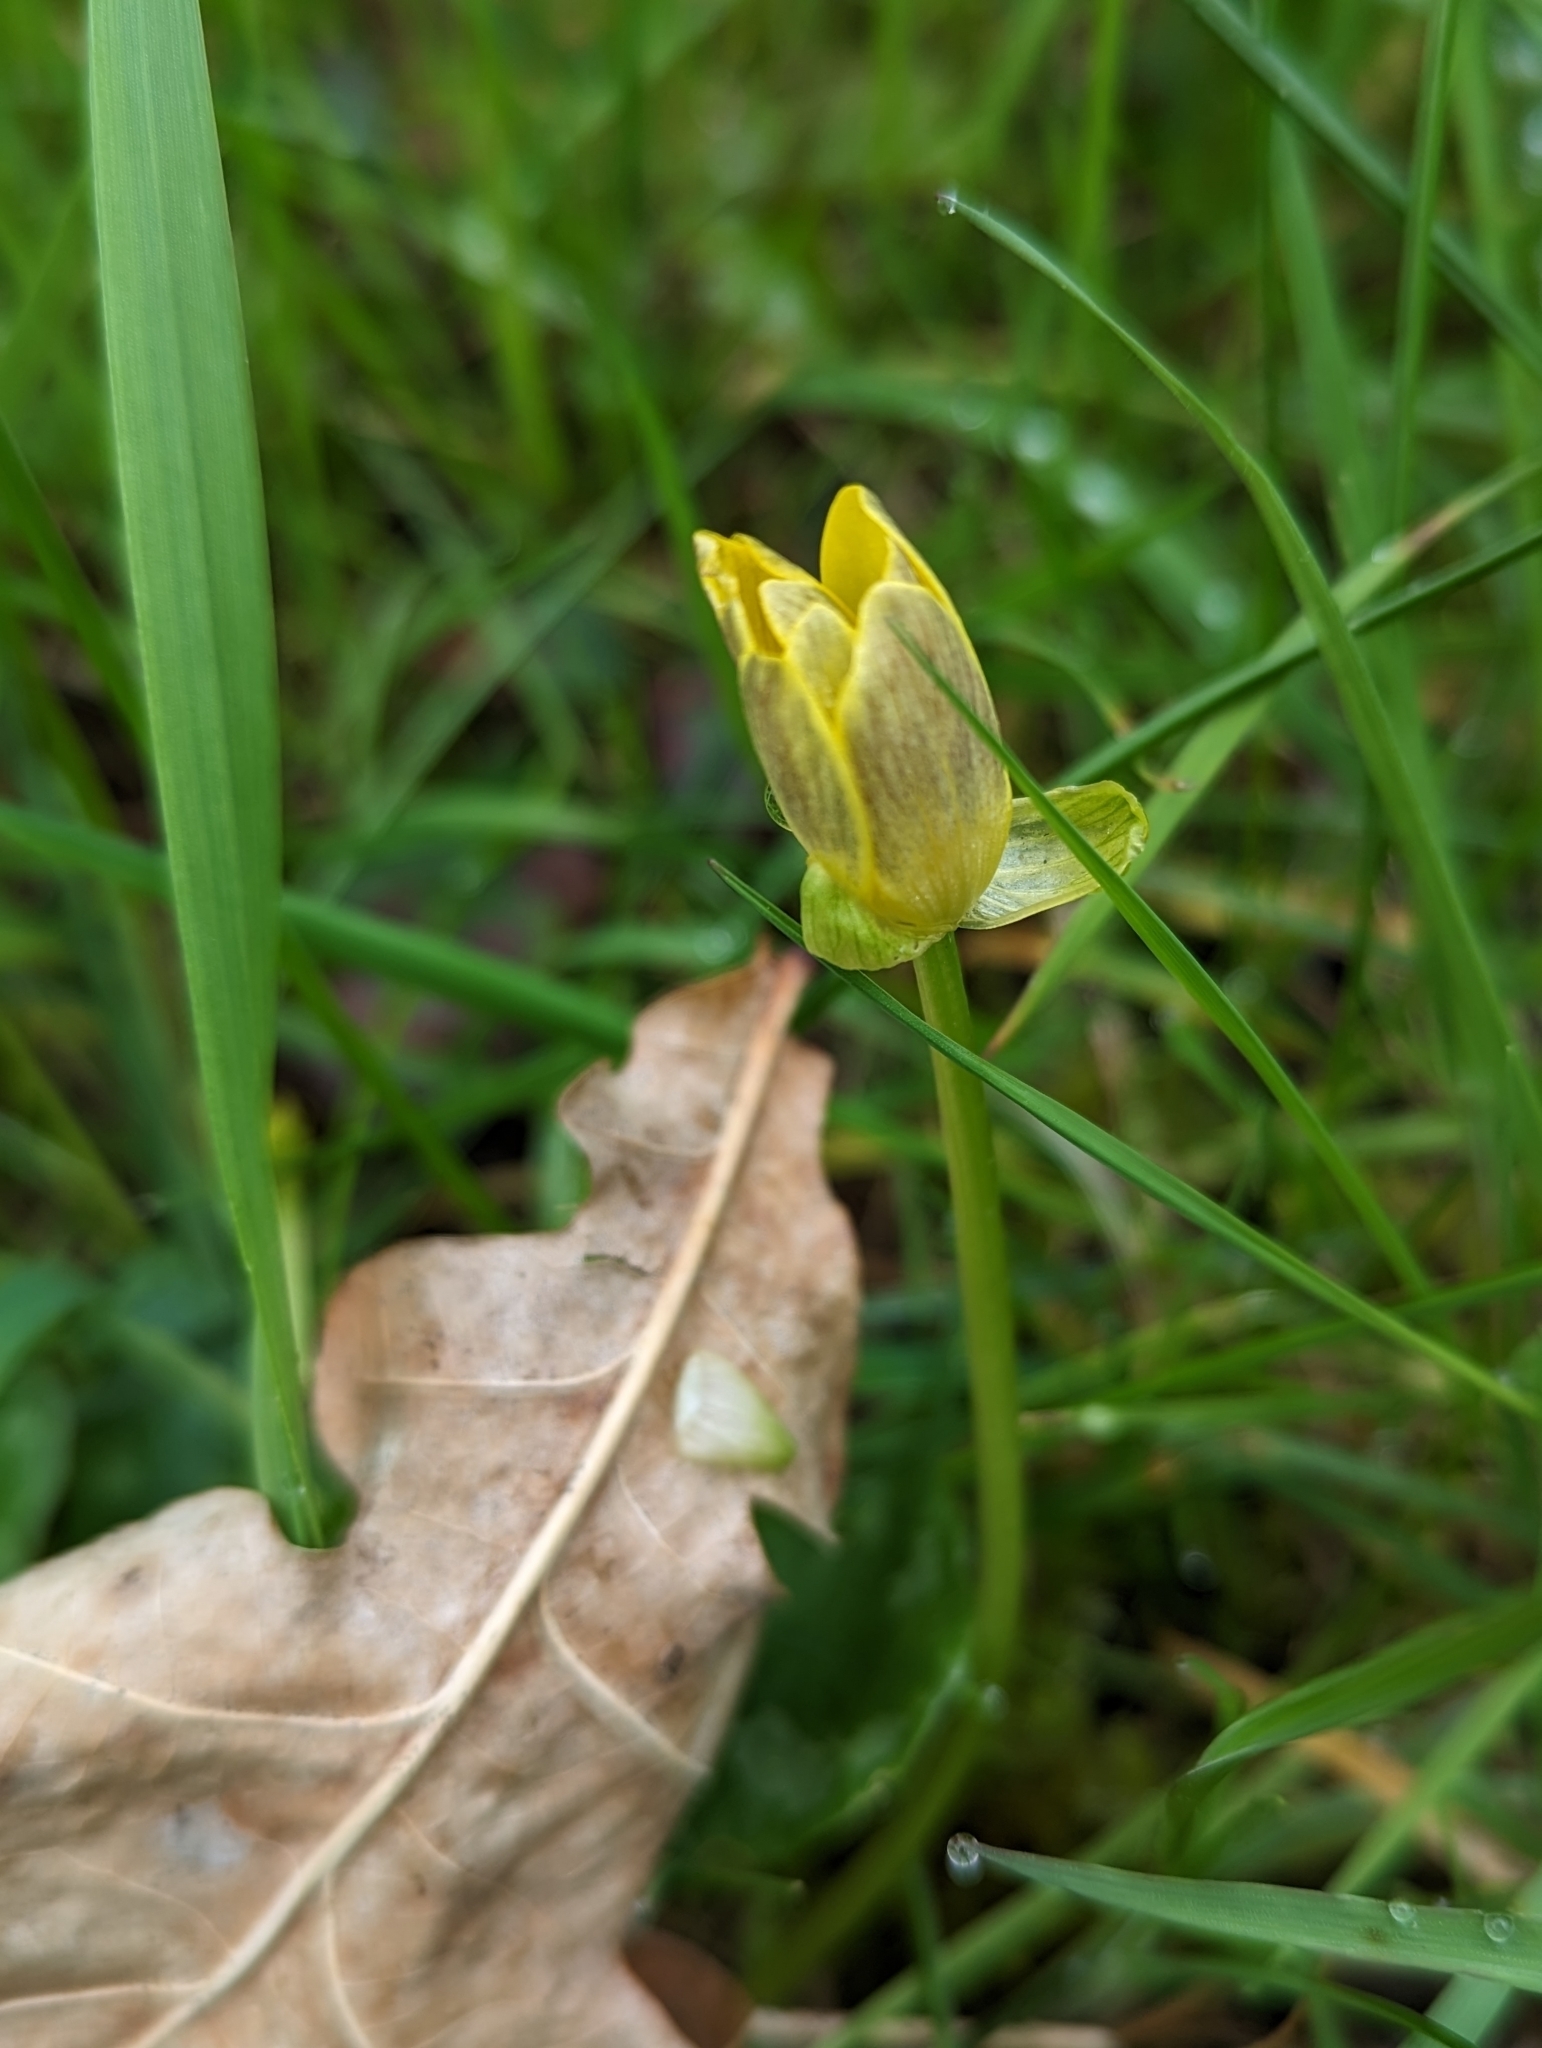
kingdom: Plantae
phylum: Tracheophyta
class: Magnoliopsida
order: Ranunculales
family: Ranunculaceae
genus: Ficaria
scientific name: Ficaria verna
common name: Lesser celandine
